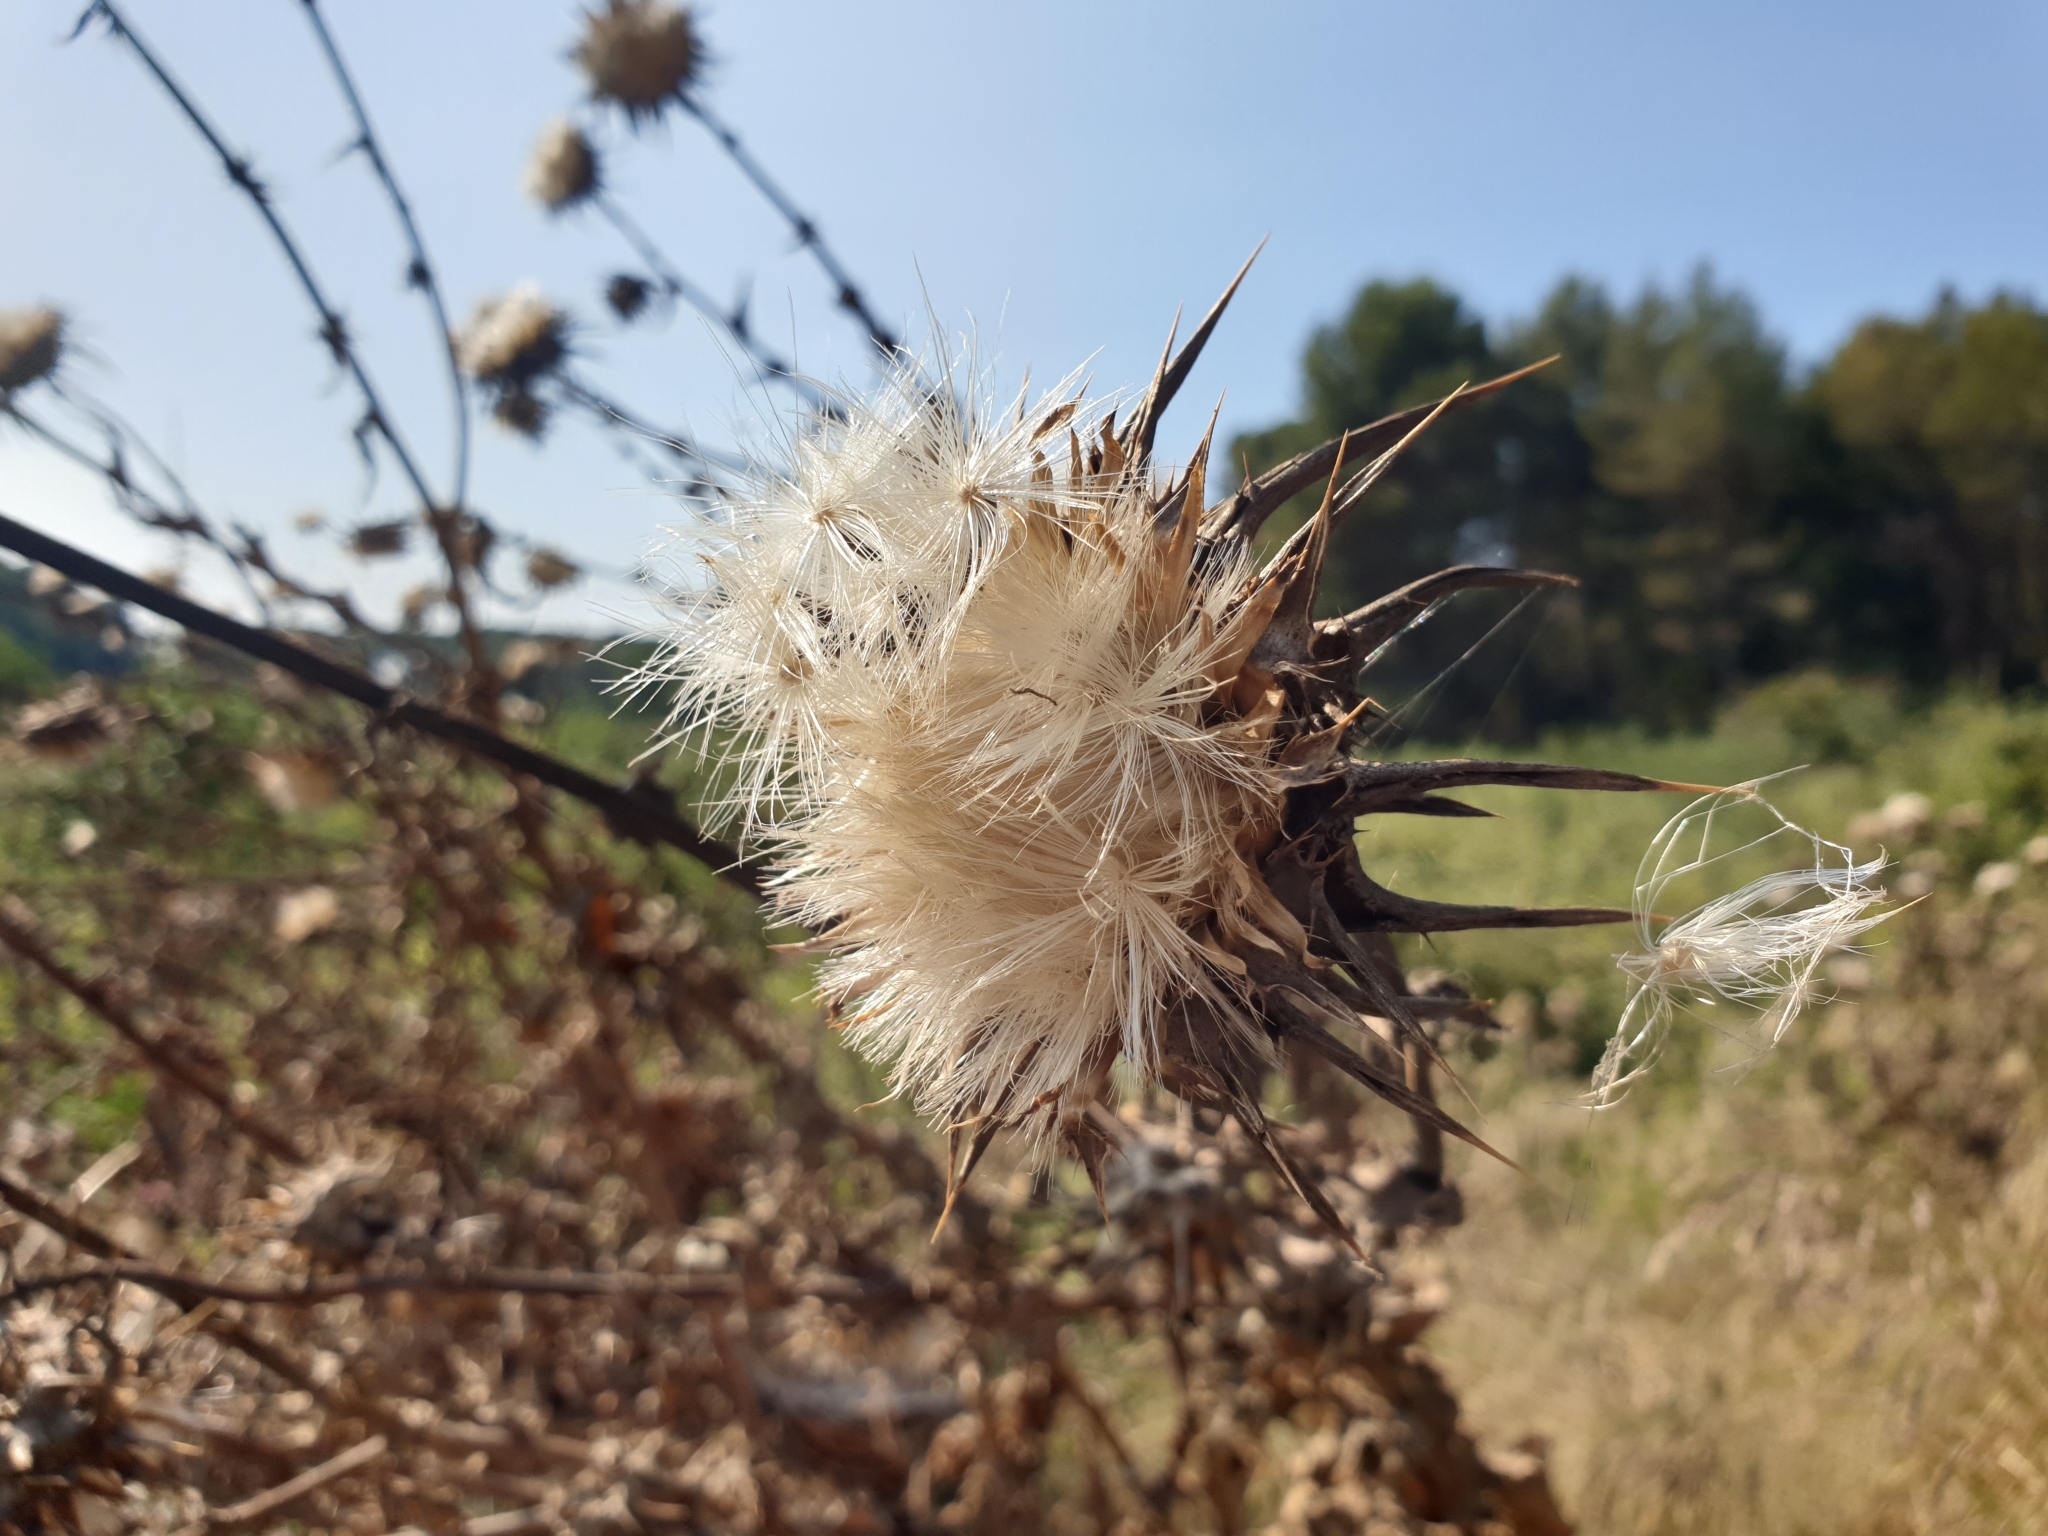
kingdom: Plantae
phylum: Tracheophyta
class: Magnoliopsida
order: Asterales
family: Asteraceae
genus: Silybum
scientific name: Silybum marianum
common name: Milk thistle
